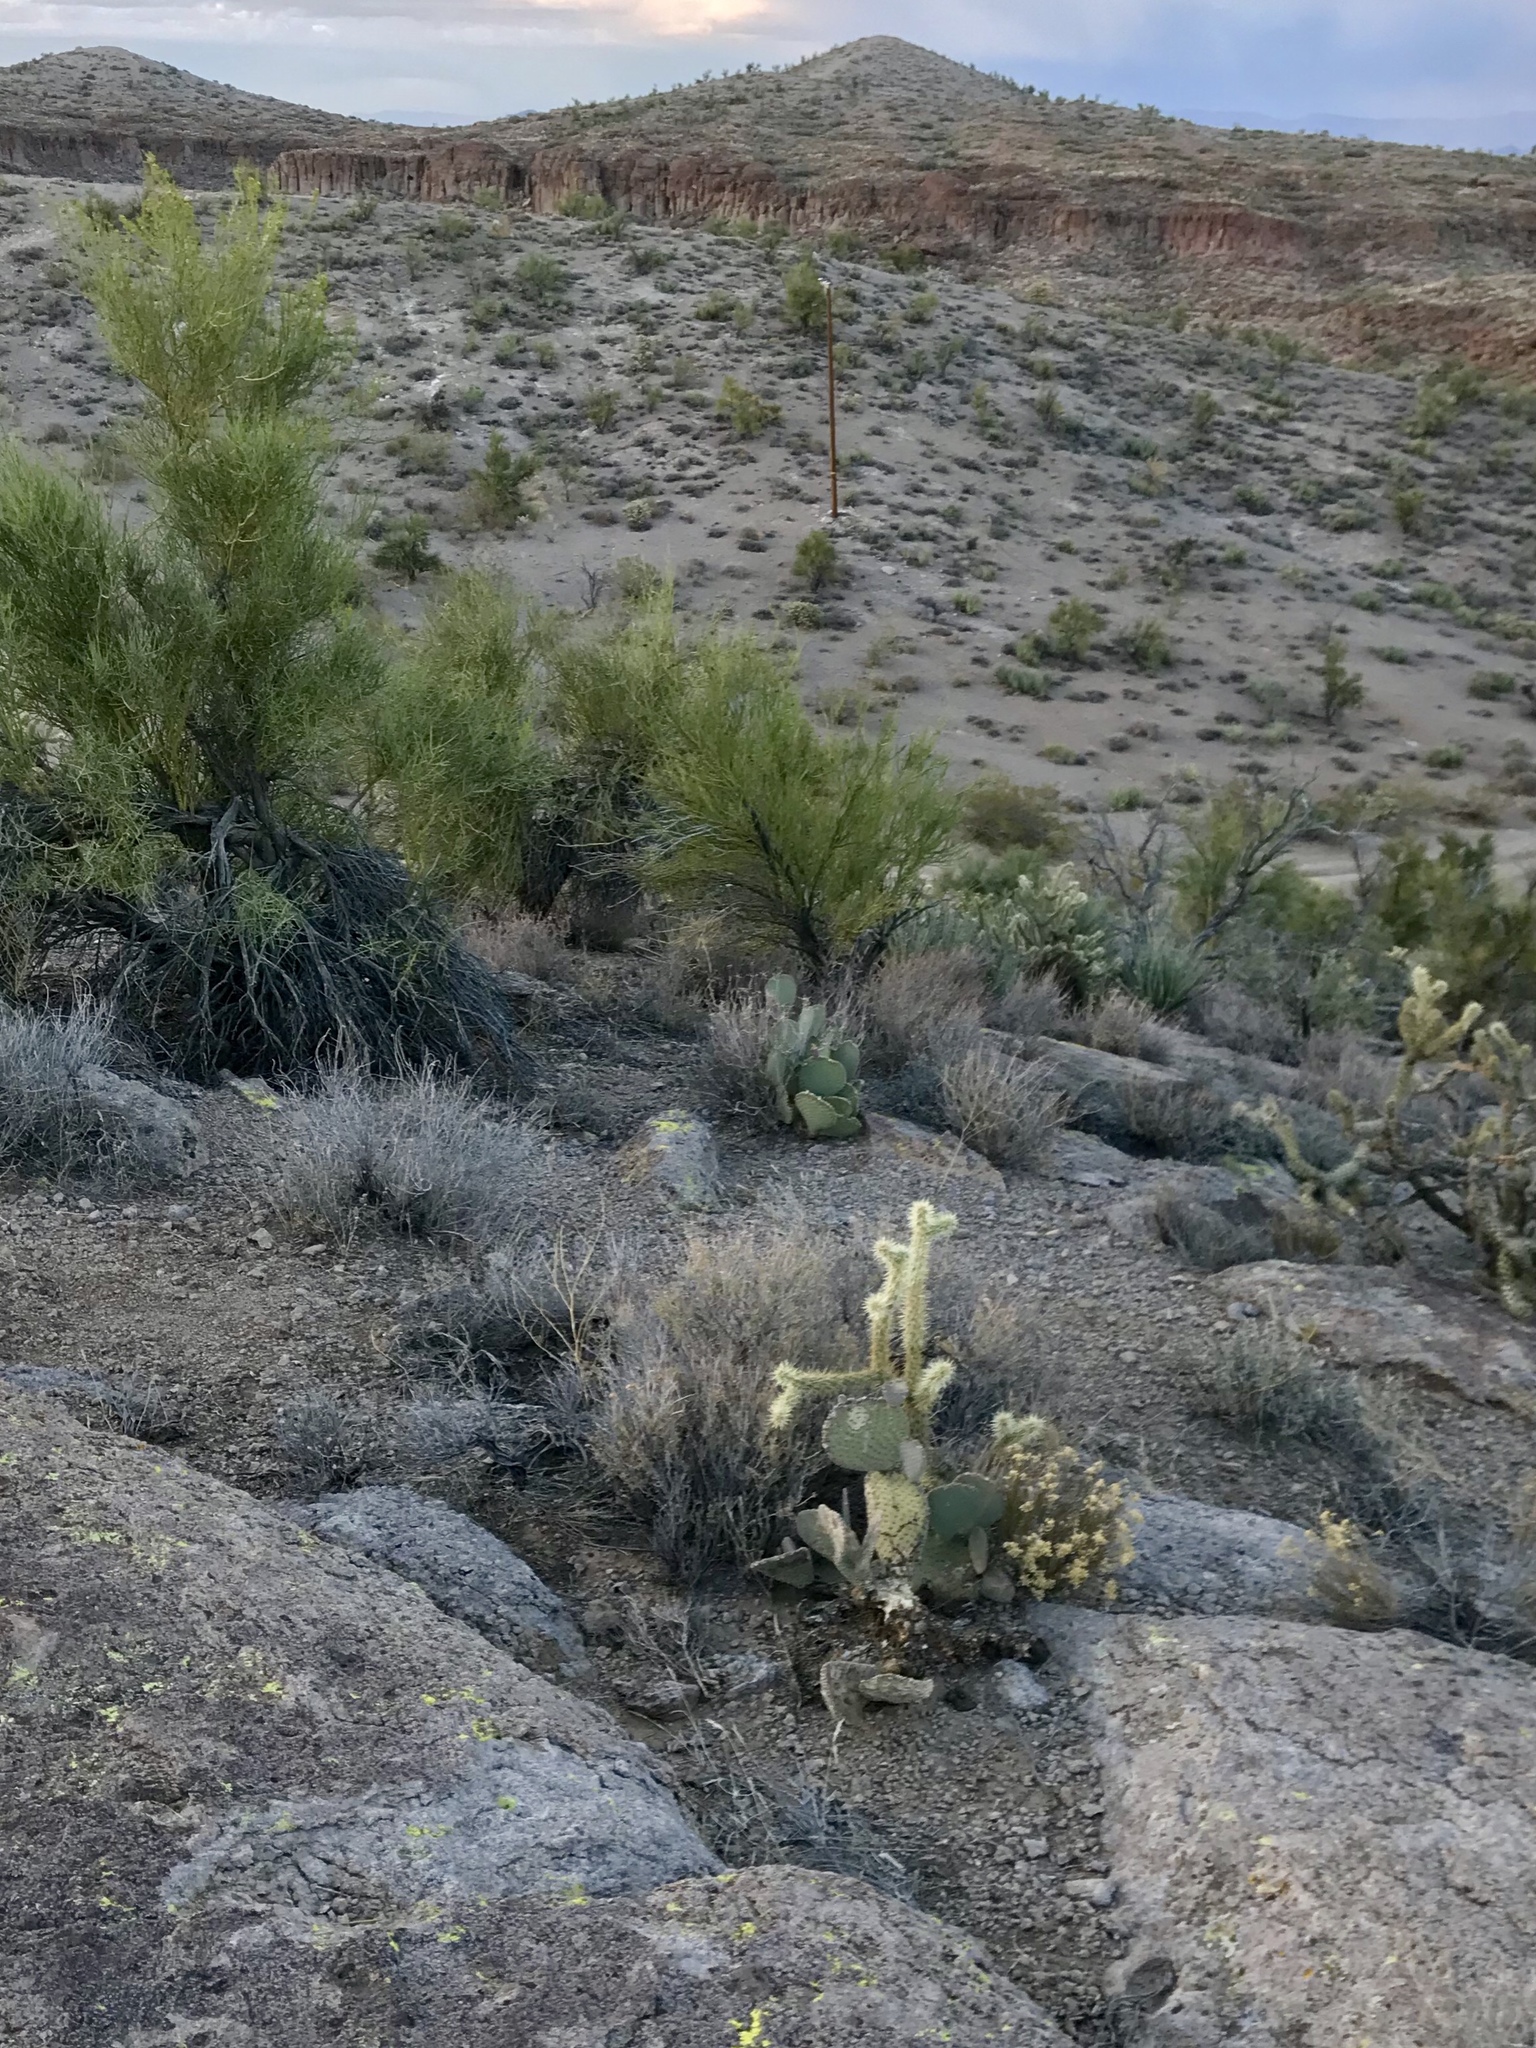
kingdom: Plantae
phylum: Tracheophyta
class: Magnoliopsida
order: Caryophyllales
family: Cactaceae
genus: Opuntia
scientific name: Opuntia basilaris
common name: Beavertail prickly-pear
